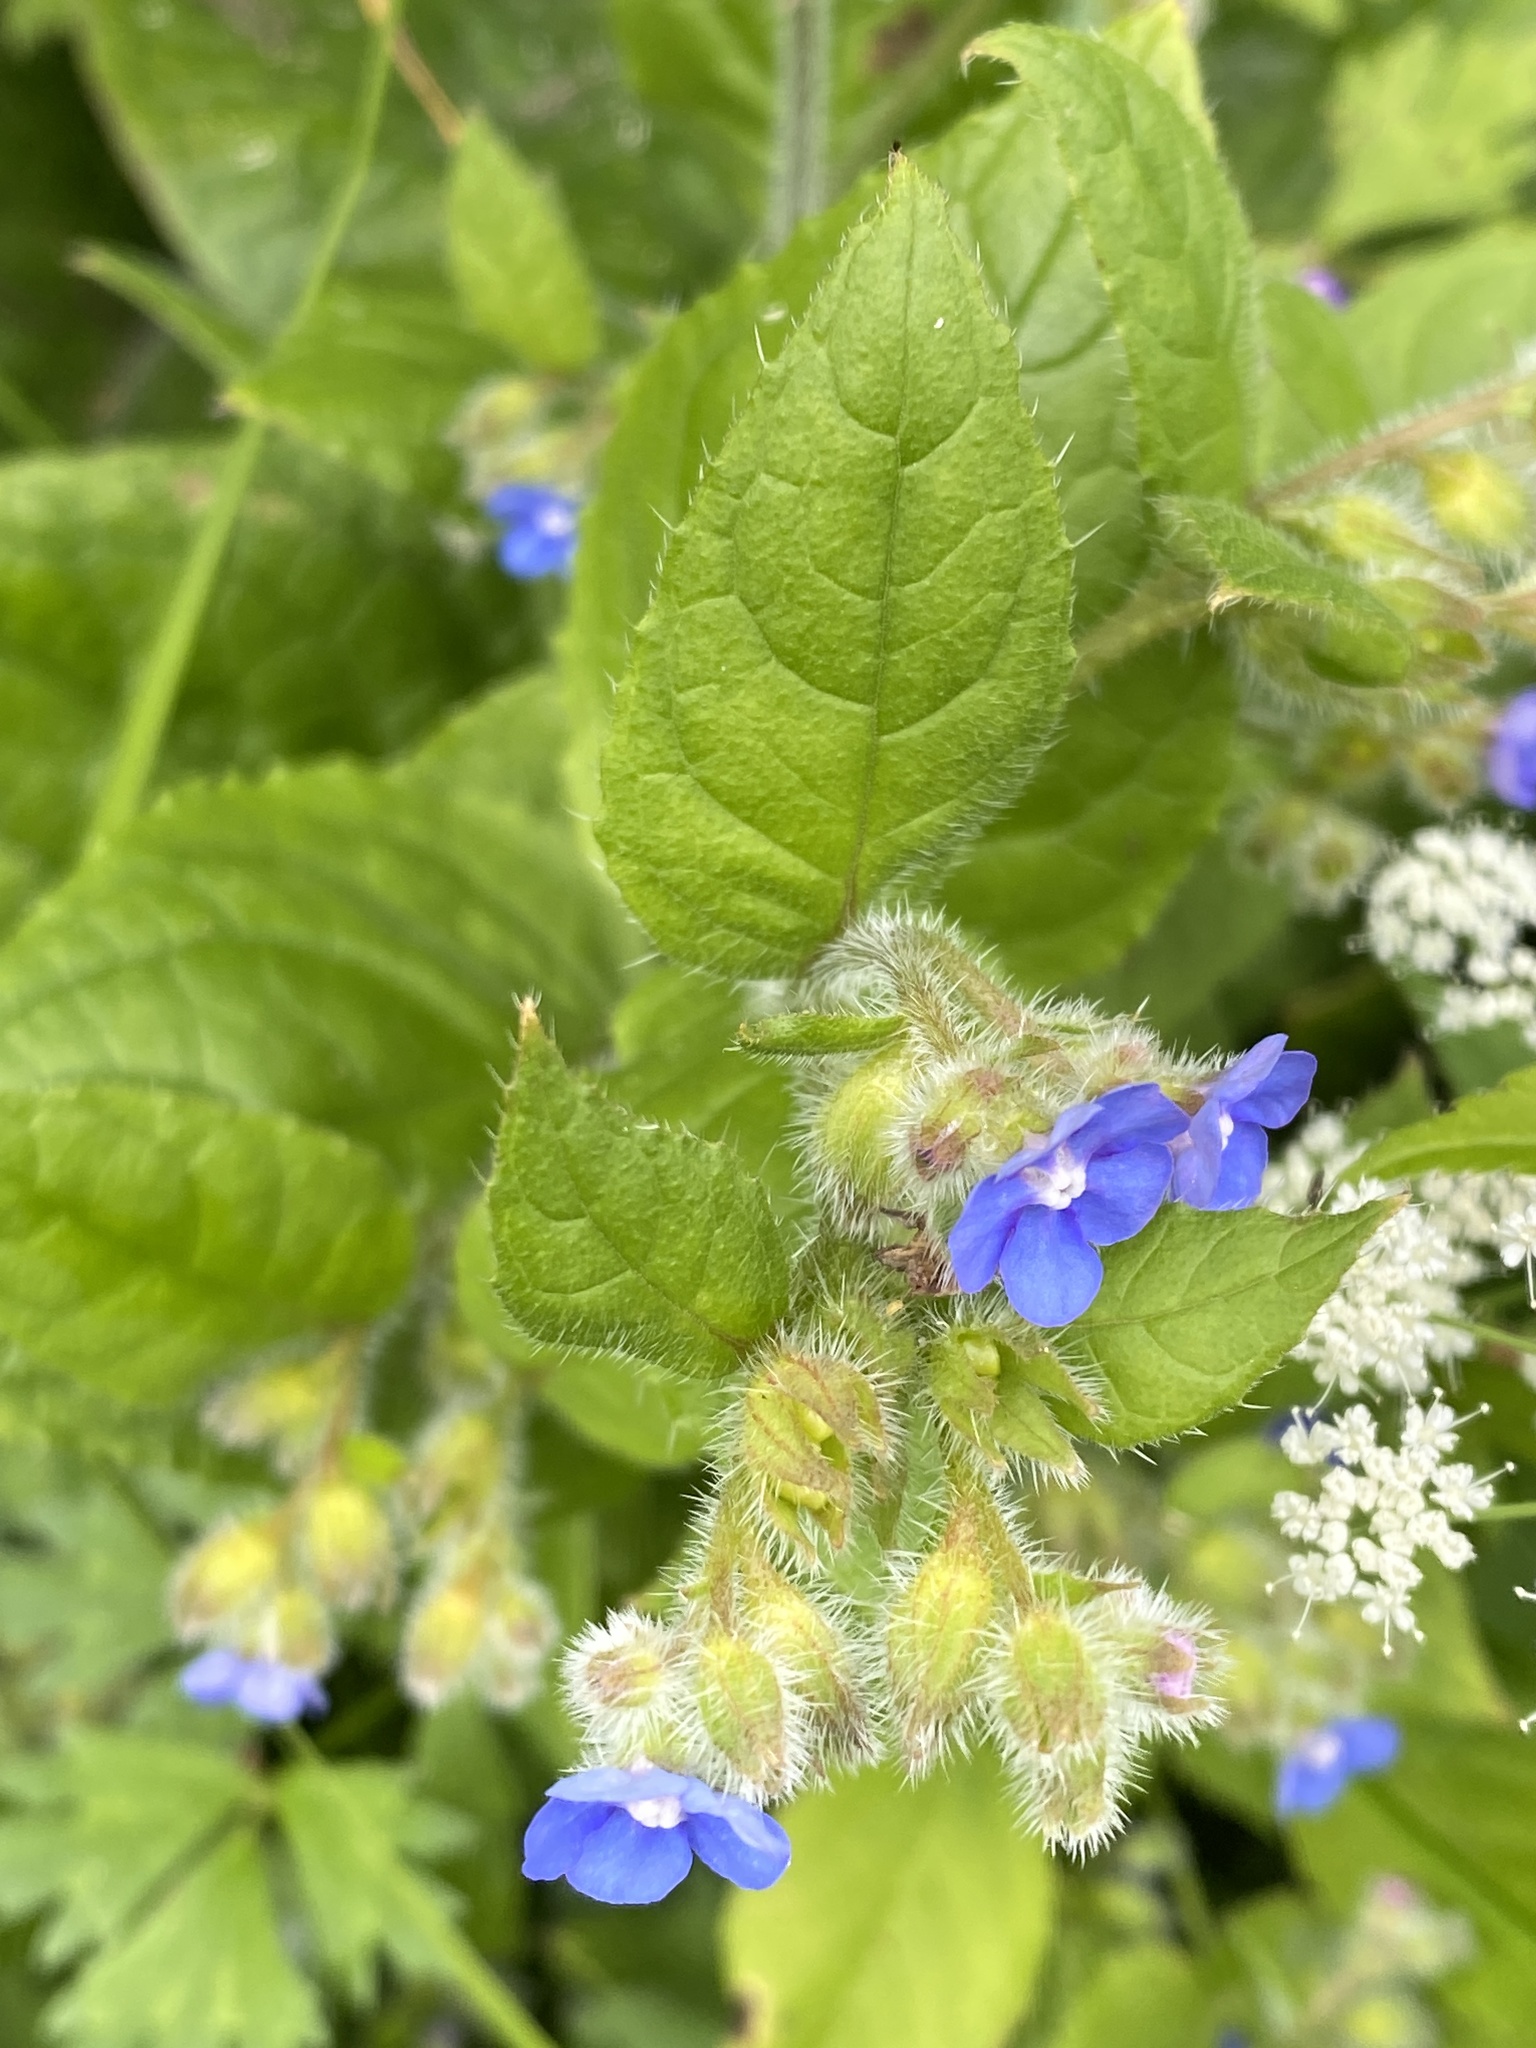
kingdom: Plantae
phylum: Tracheophyta
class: Magnoliopsida
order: Boraginales
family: Boraginaceae
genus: Pentaglottis
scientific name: Pentaglottis sempervirens
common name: Green alkanet
